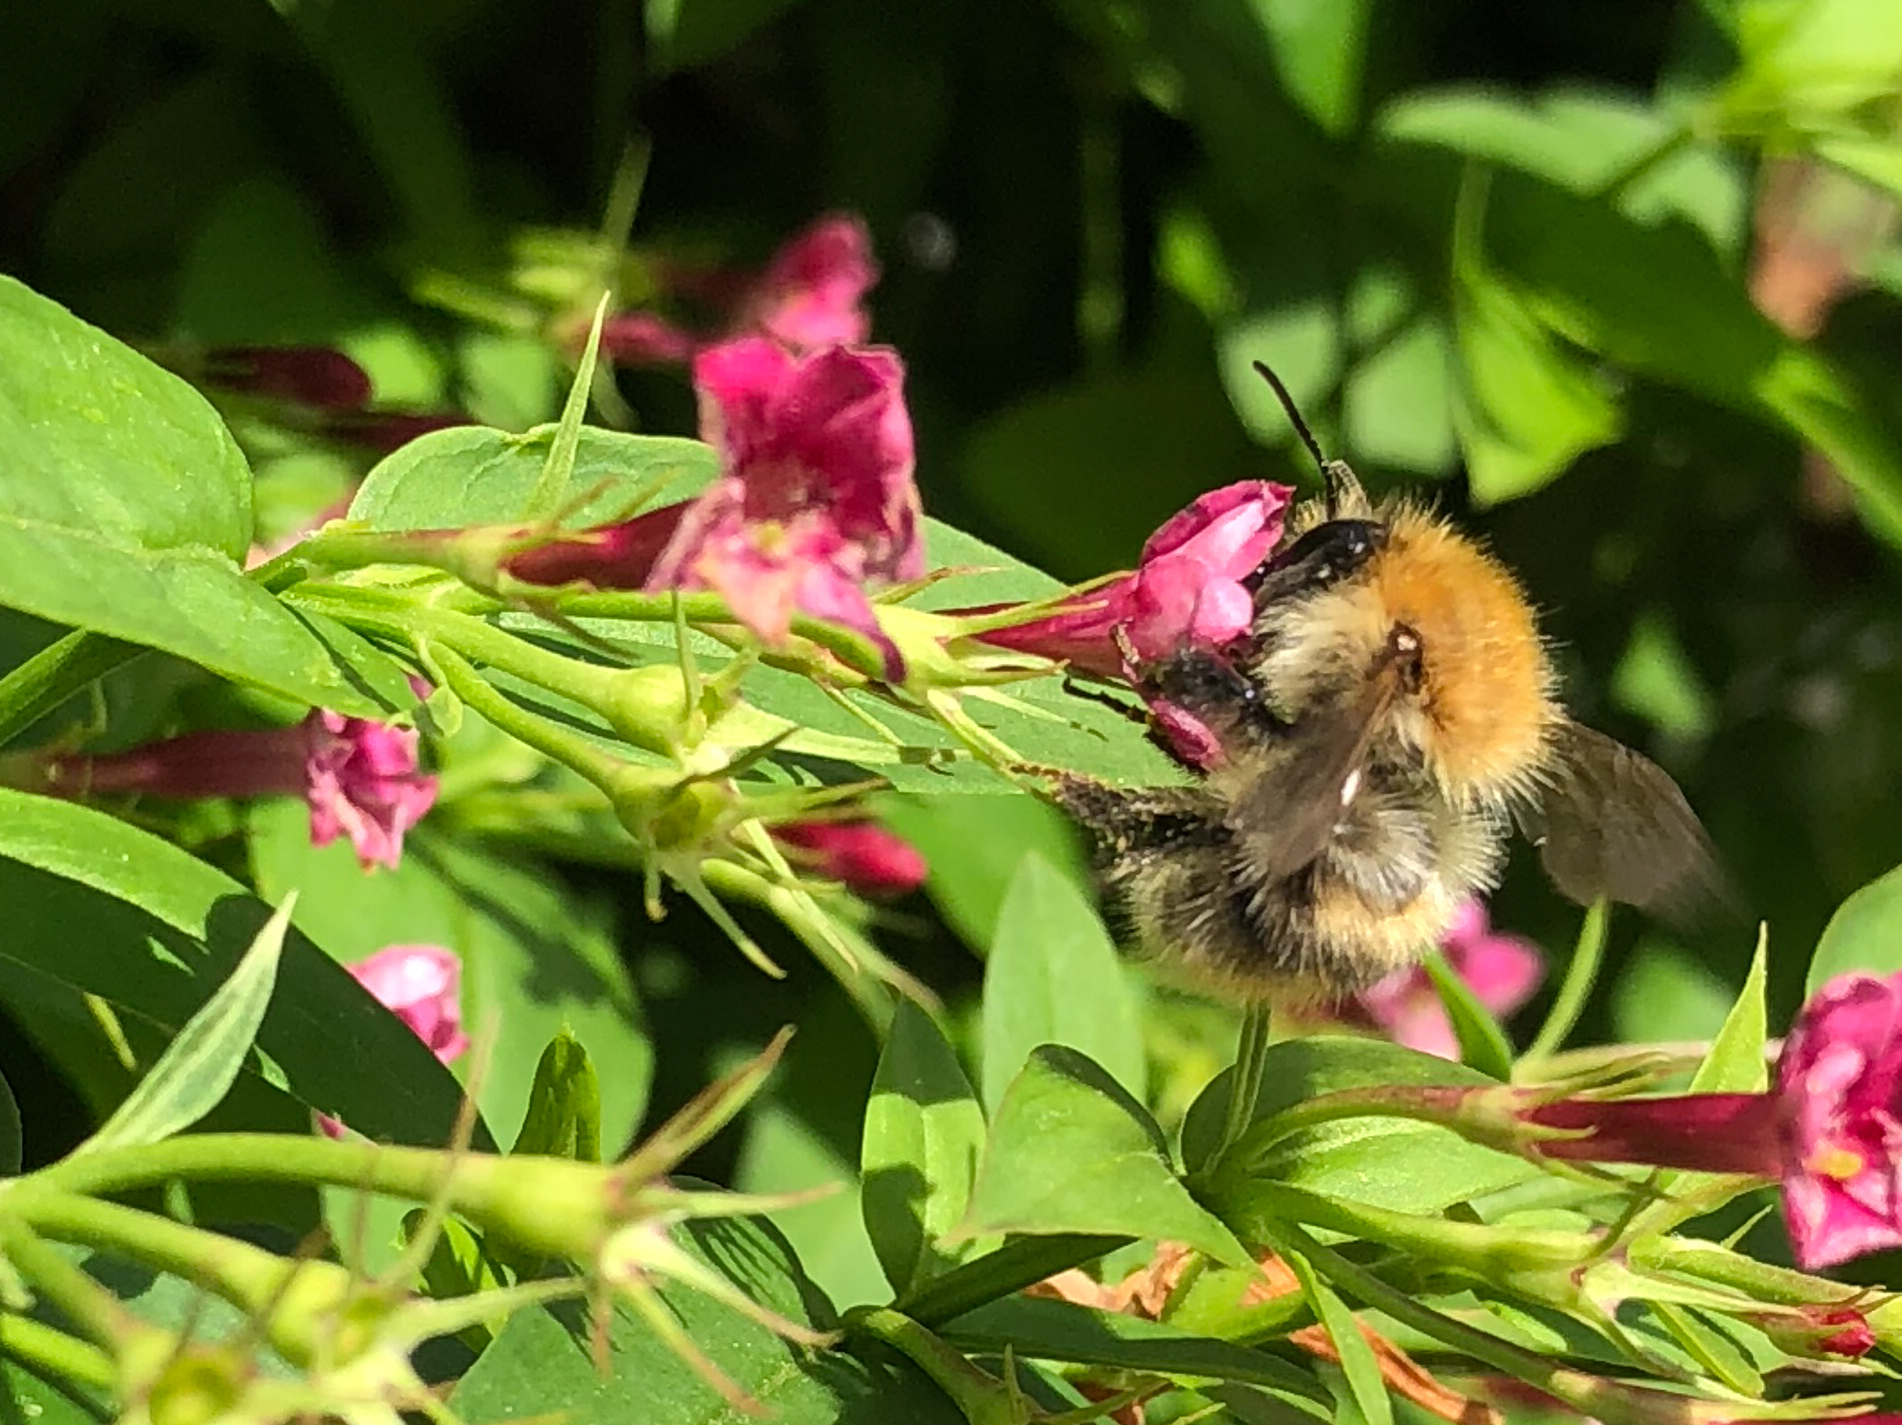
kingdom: Animalia
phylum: Arthropoda
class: Insecta
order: Hymenoptera
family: Apidae
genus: Bombus
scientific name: Bombus pascuorum
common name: Common carder bee
